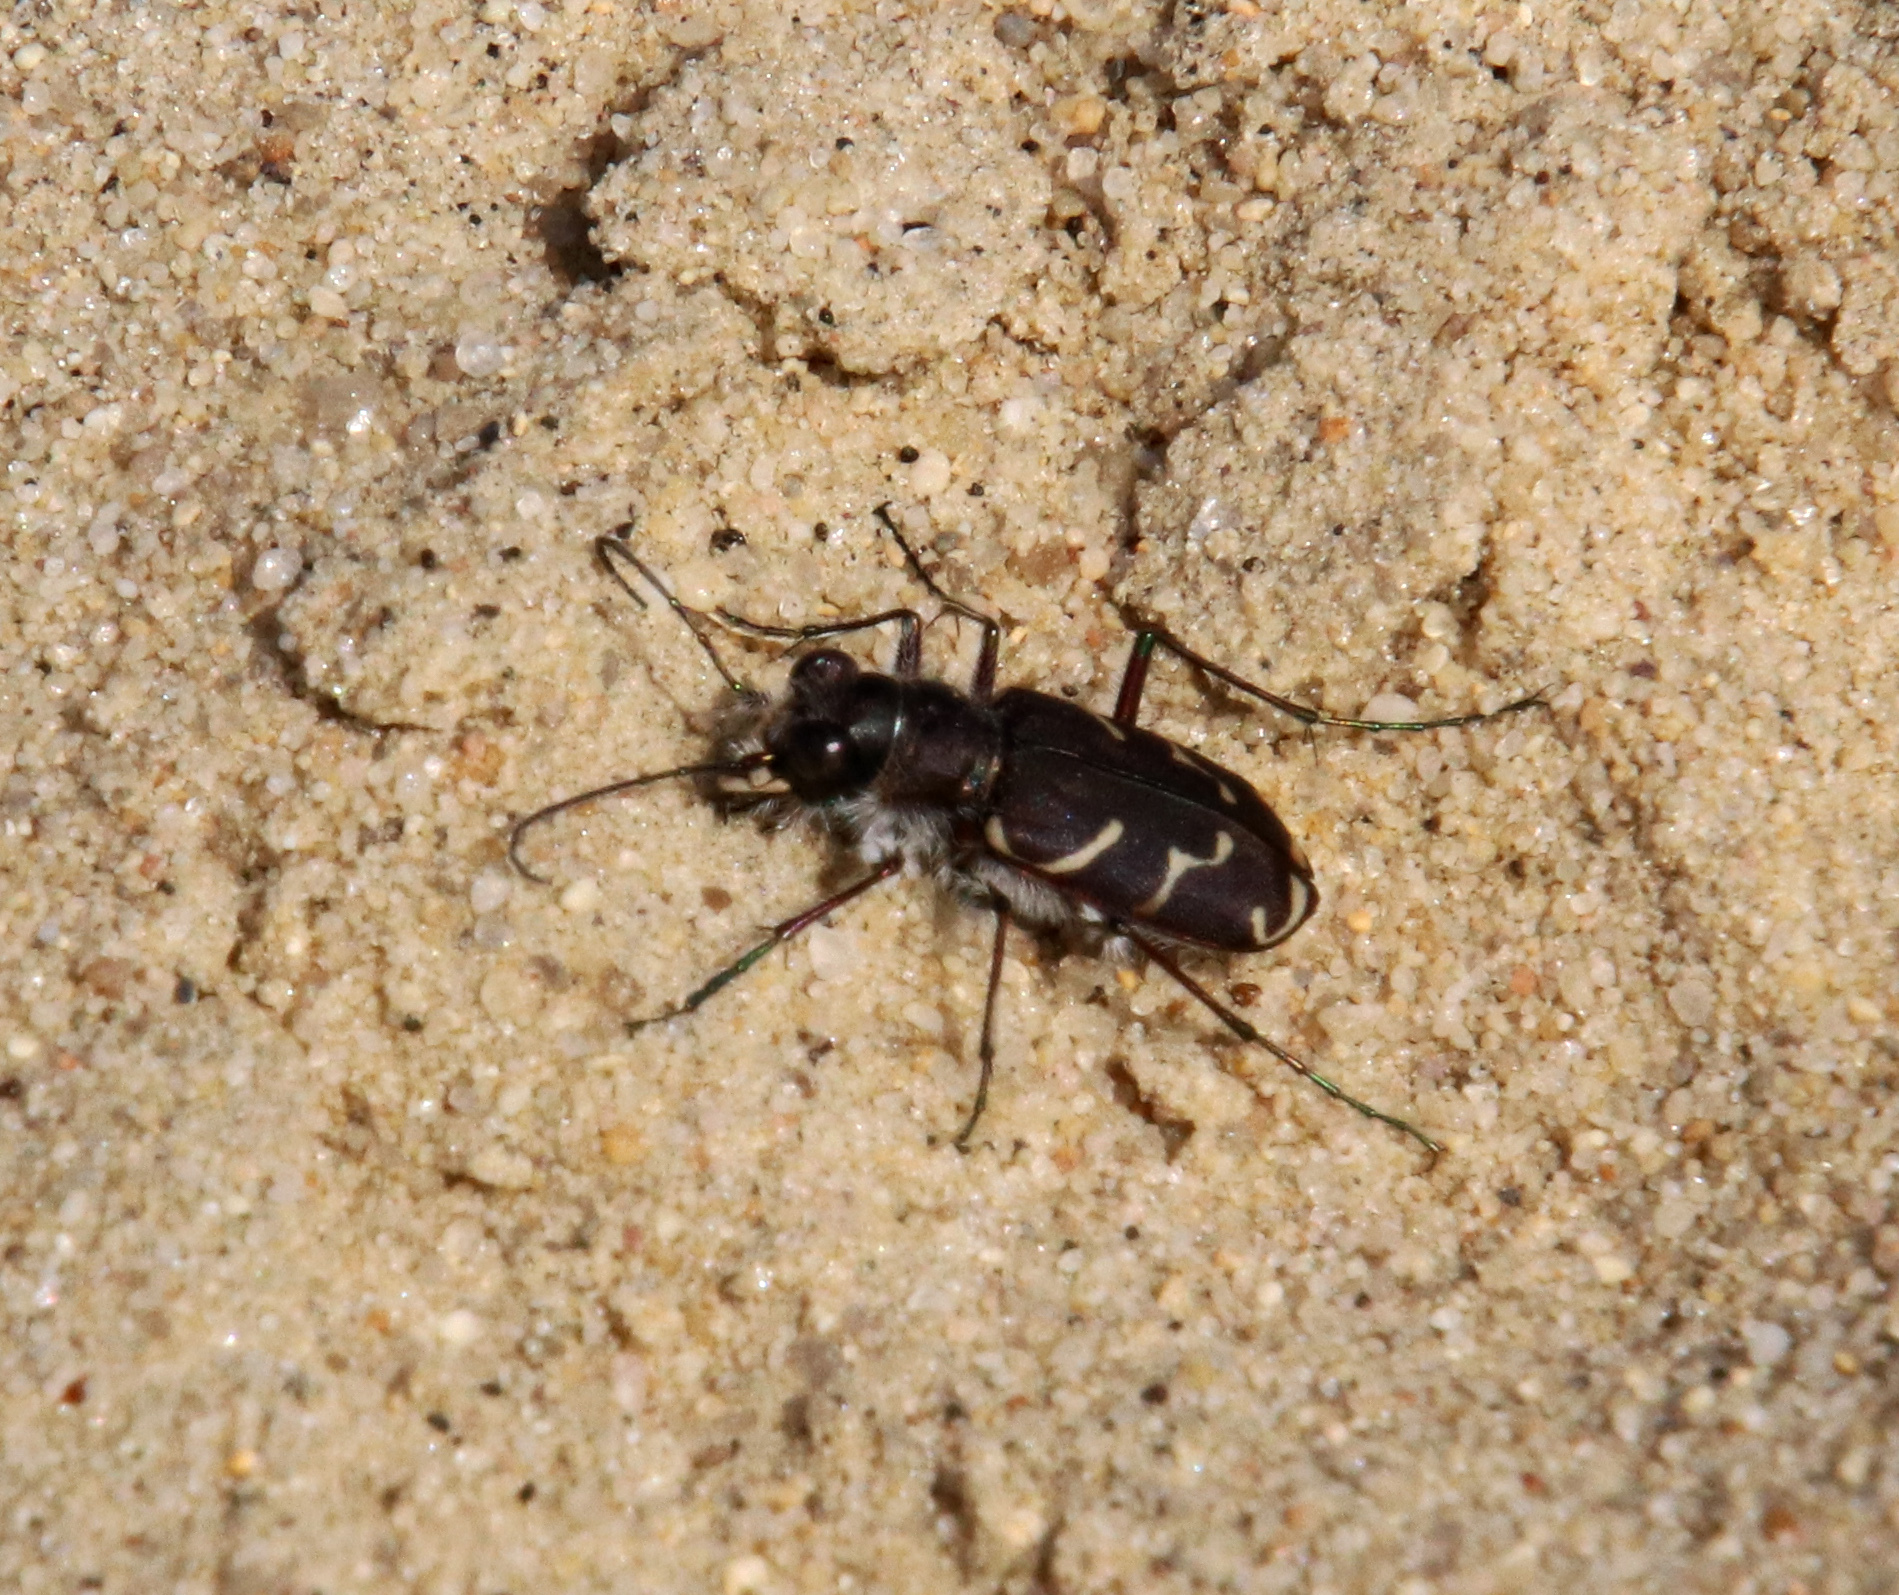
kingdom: Animalia
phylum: Arthropoda
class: Insecta
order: Coleoptera
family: Carabidae
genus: Cicindela
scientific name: Cicindela tranquebarica
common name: Oblique-lined tiger beetle
